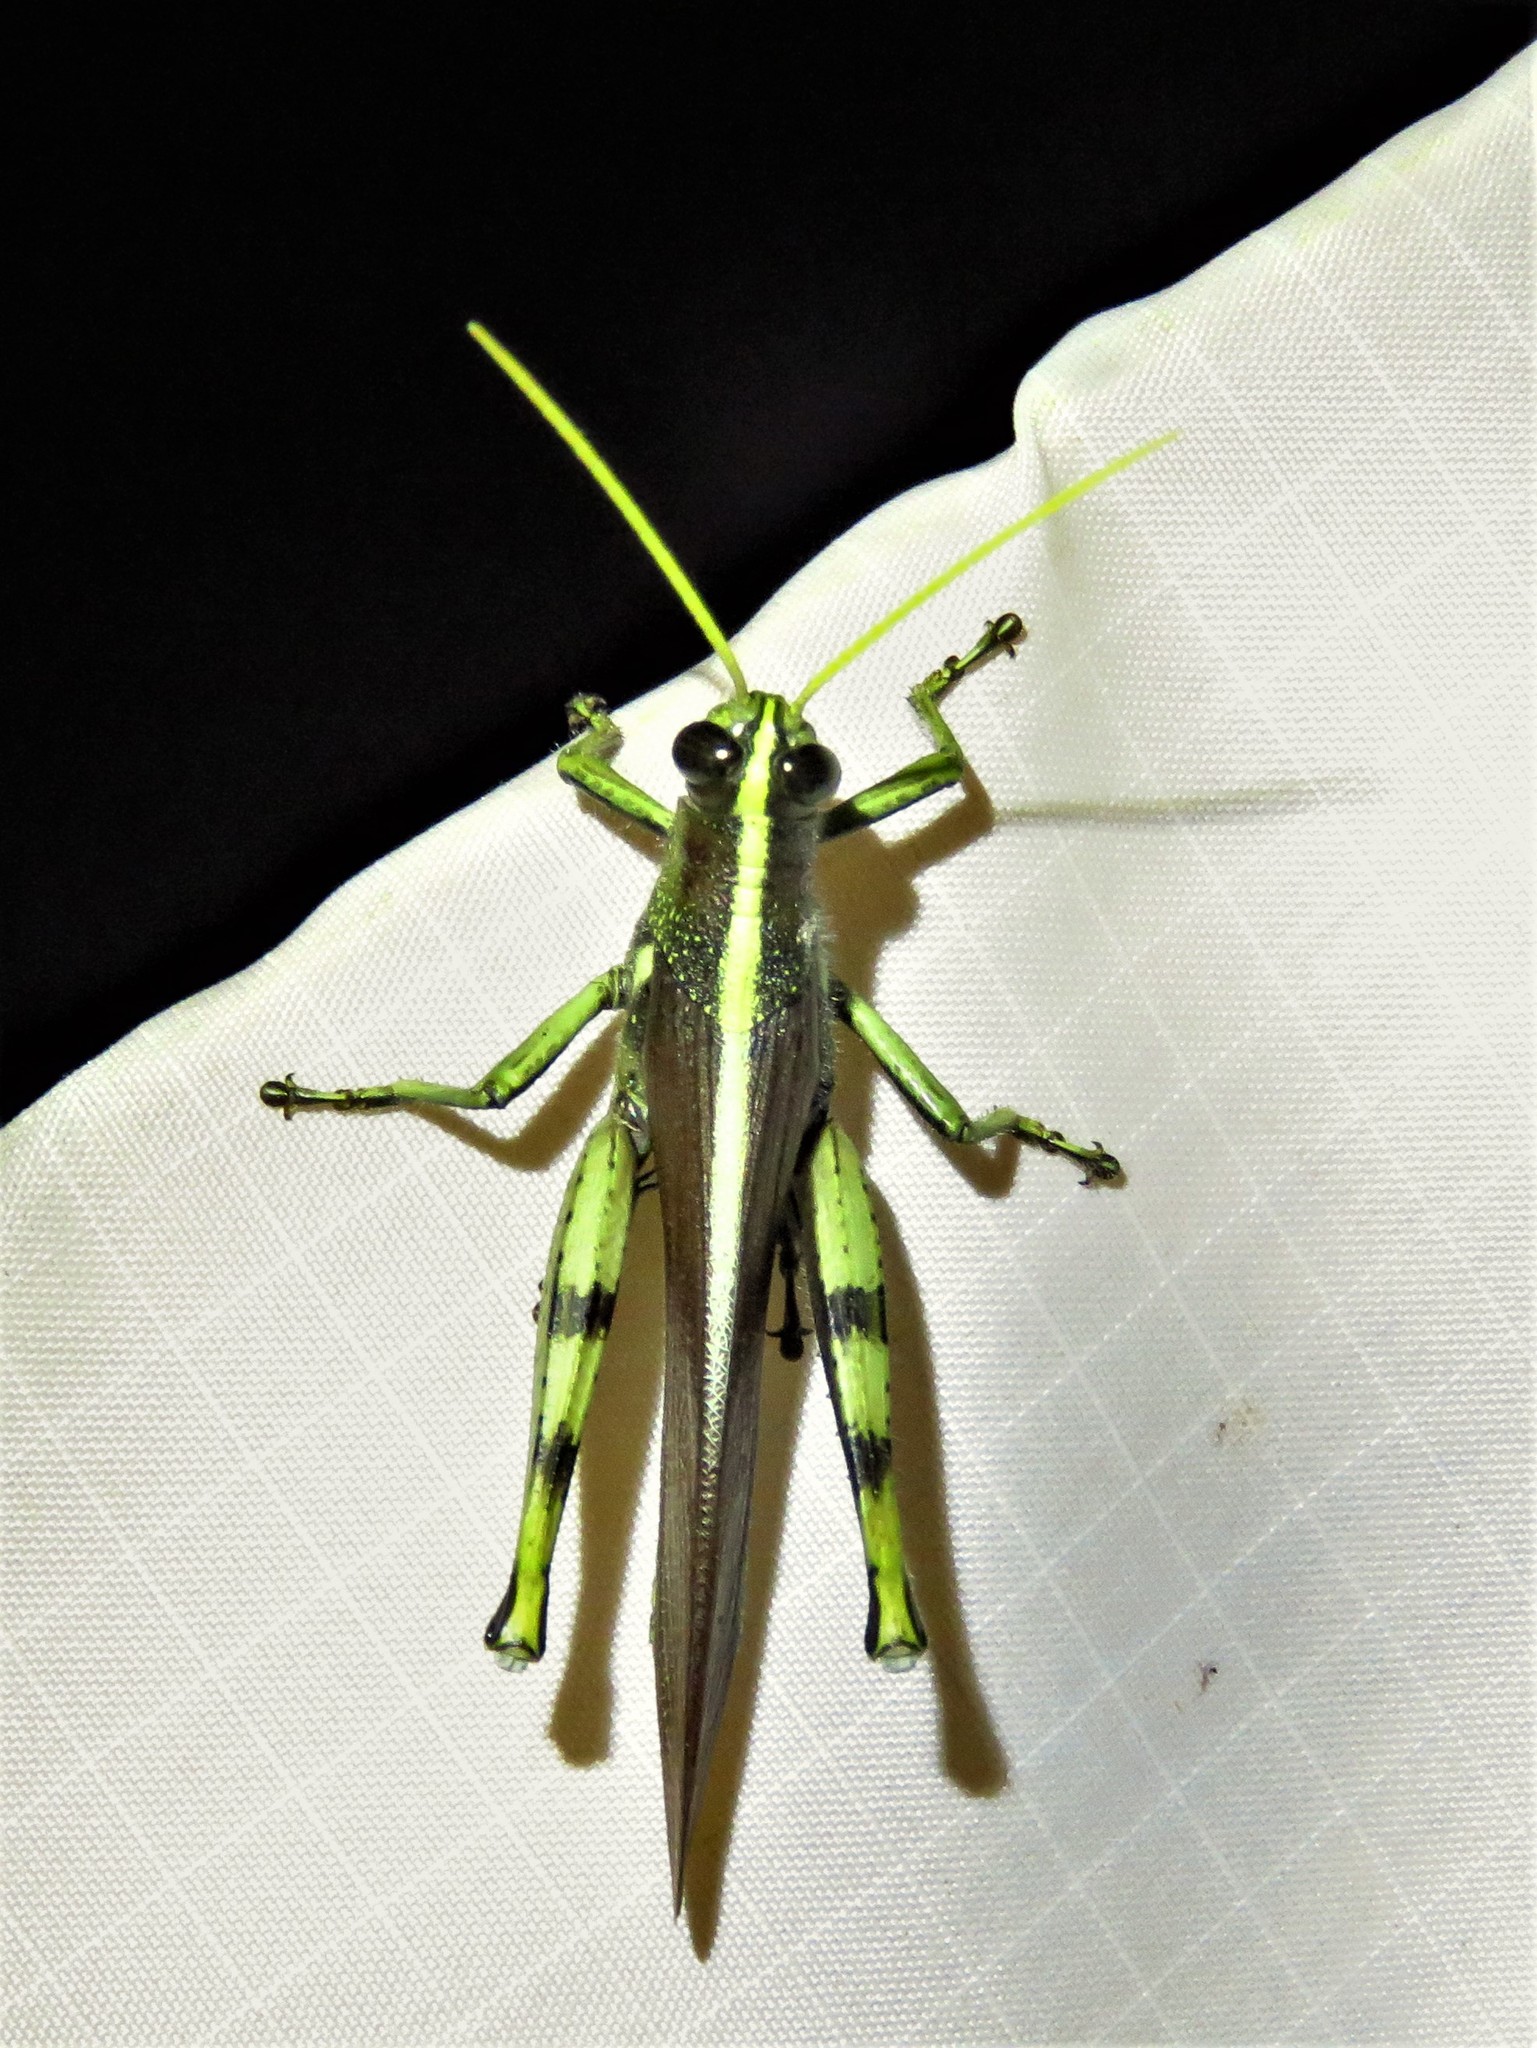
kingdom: Animalia
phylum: Arthropoda
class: Insecta
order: Orthoptera
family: Acrididae
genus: Schistocerca
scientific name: Schistocerca obscura
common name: Obscure bird grasshopper
